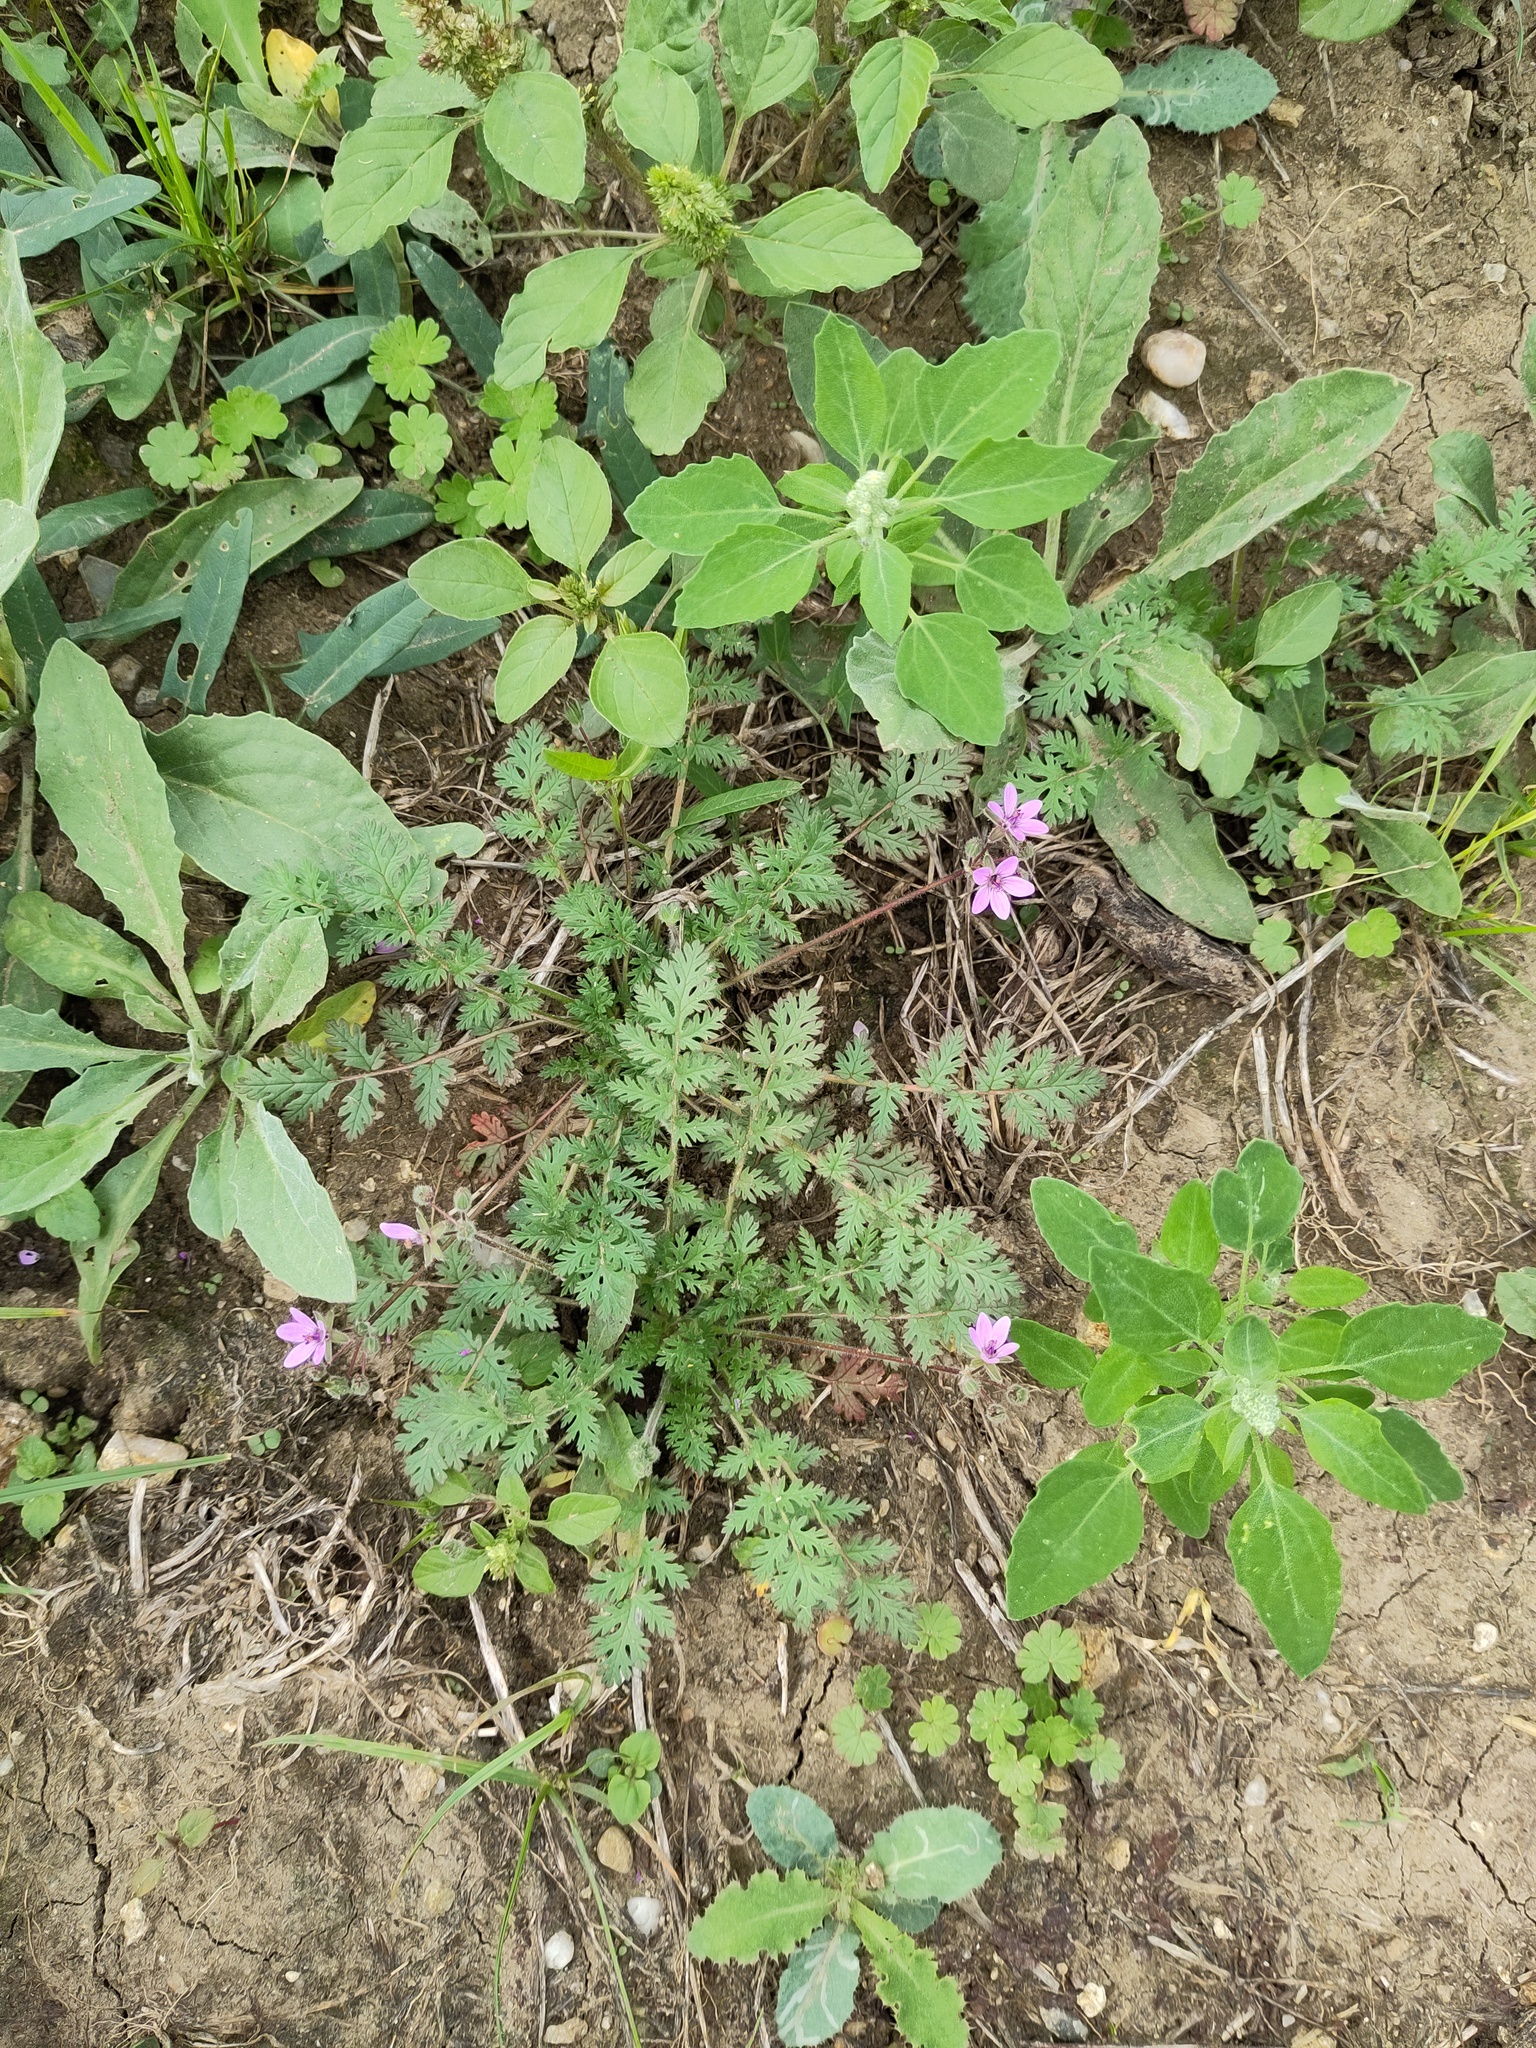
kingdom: Plantae
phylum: Tracheophyta
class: Magnoliopsida
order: Geraniales
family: Geraniaceae
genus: Erodium
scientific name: Erodium cicutarium
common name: Common stork's-bill
